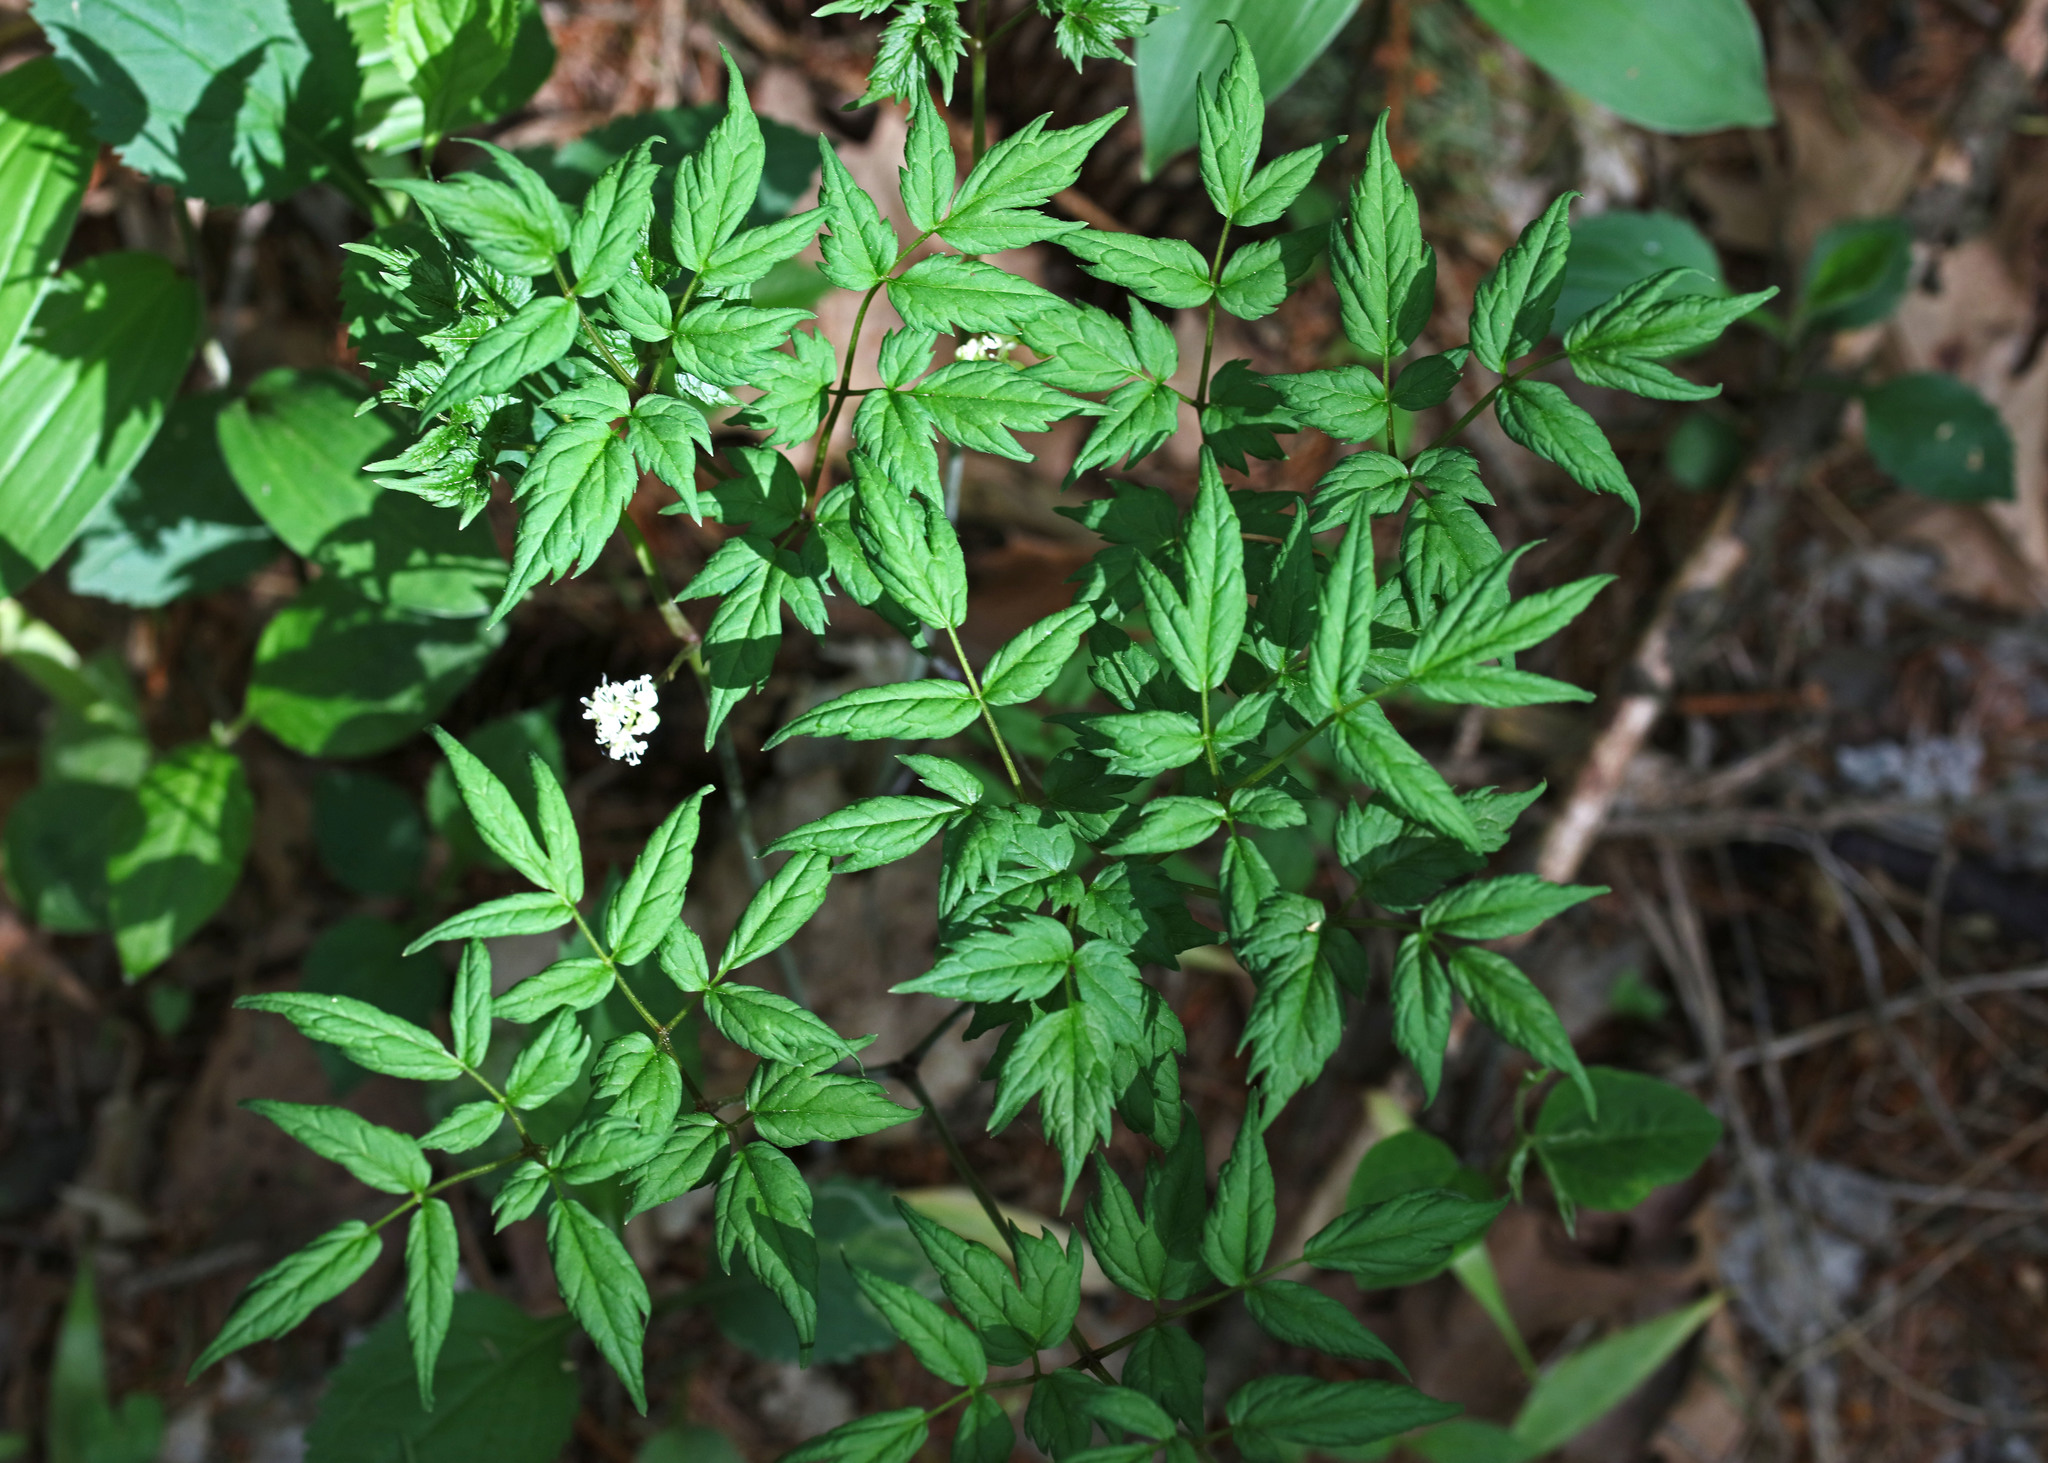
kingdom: Plantae
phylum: Tracheophyta
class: Magnoliopsida
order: Ranunculales
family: Ranunculaceae
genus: Actaea
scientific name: Actaea pachypoda
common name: Doll's-eyes
